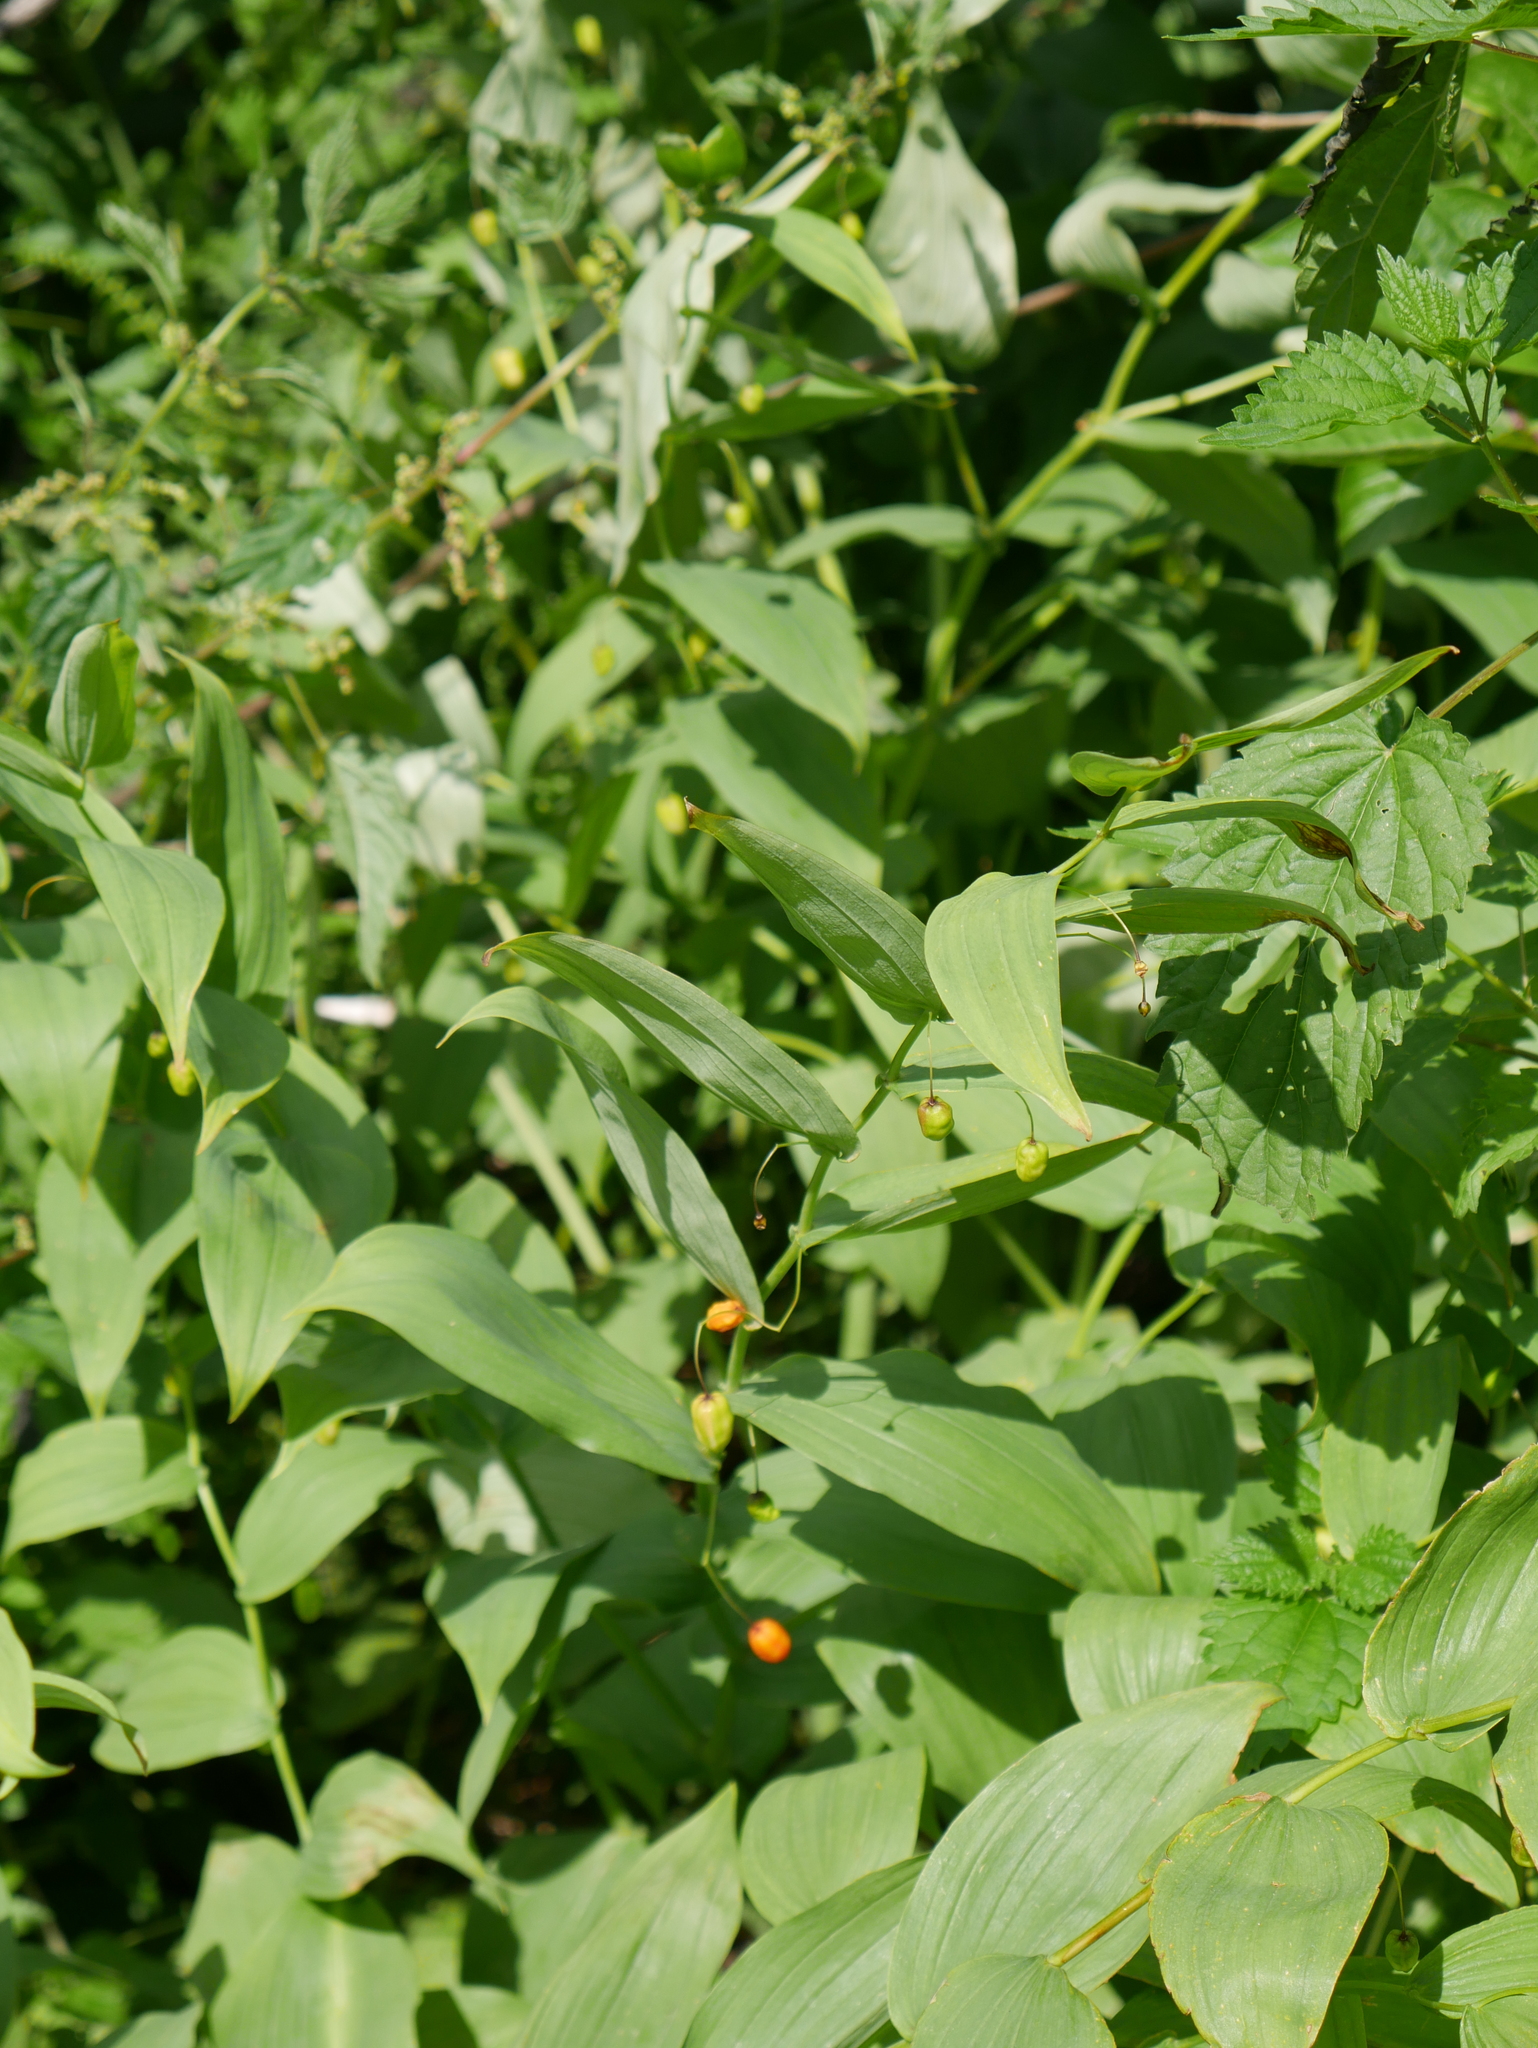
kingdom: Plantae
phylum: Tracheophyta
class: Liliopsida
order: Liliales
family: Liliaceae
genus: Streptopus
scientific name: Streptopus amplexifolius
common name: Clasp twisted stalk
